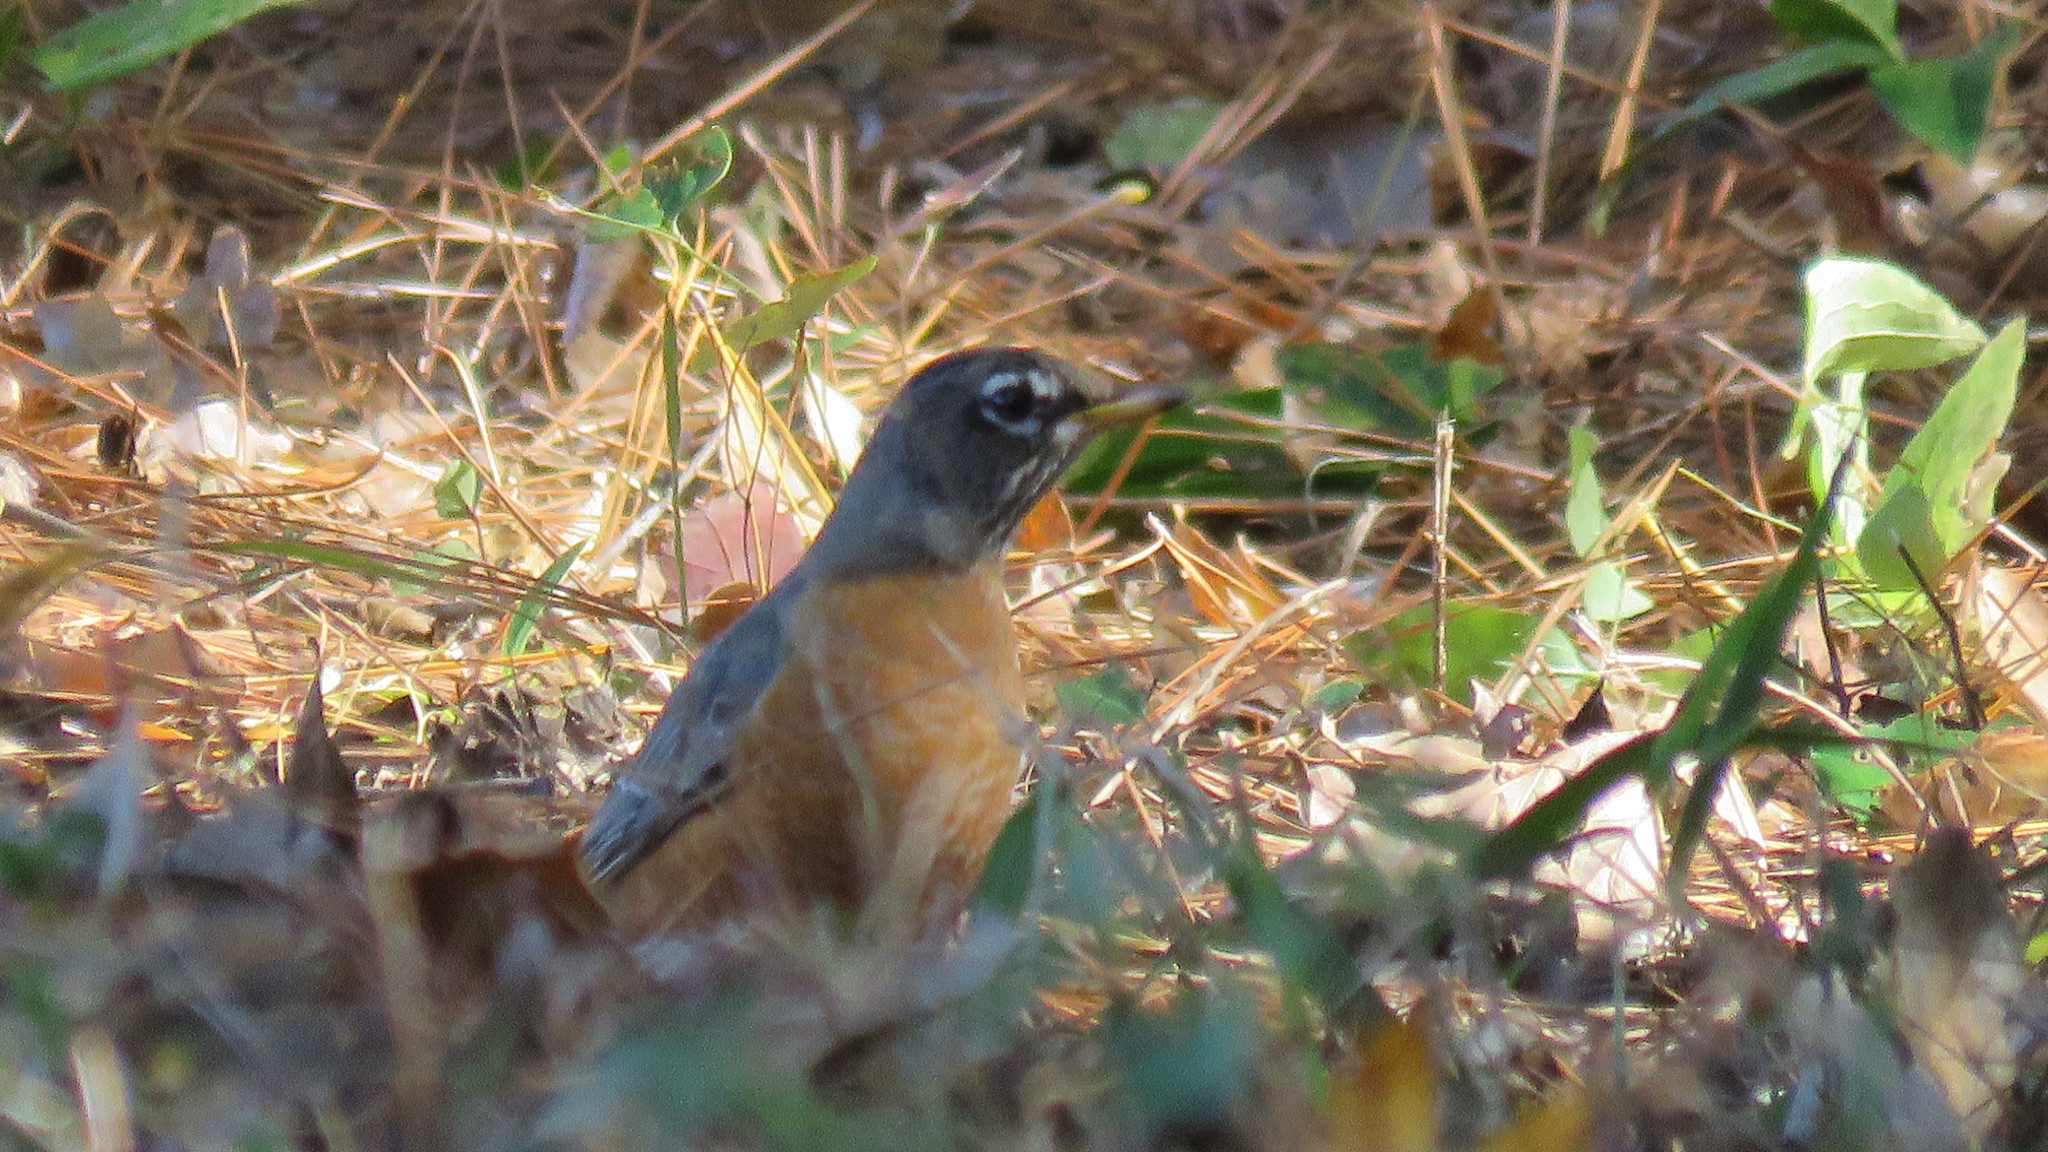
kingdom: Animalia
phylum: Chordata
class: Aves
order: Passeriformes
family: Turdidae
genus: Turdus
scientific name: Turdus migratorius
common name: American robin
